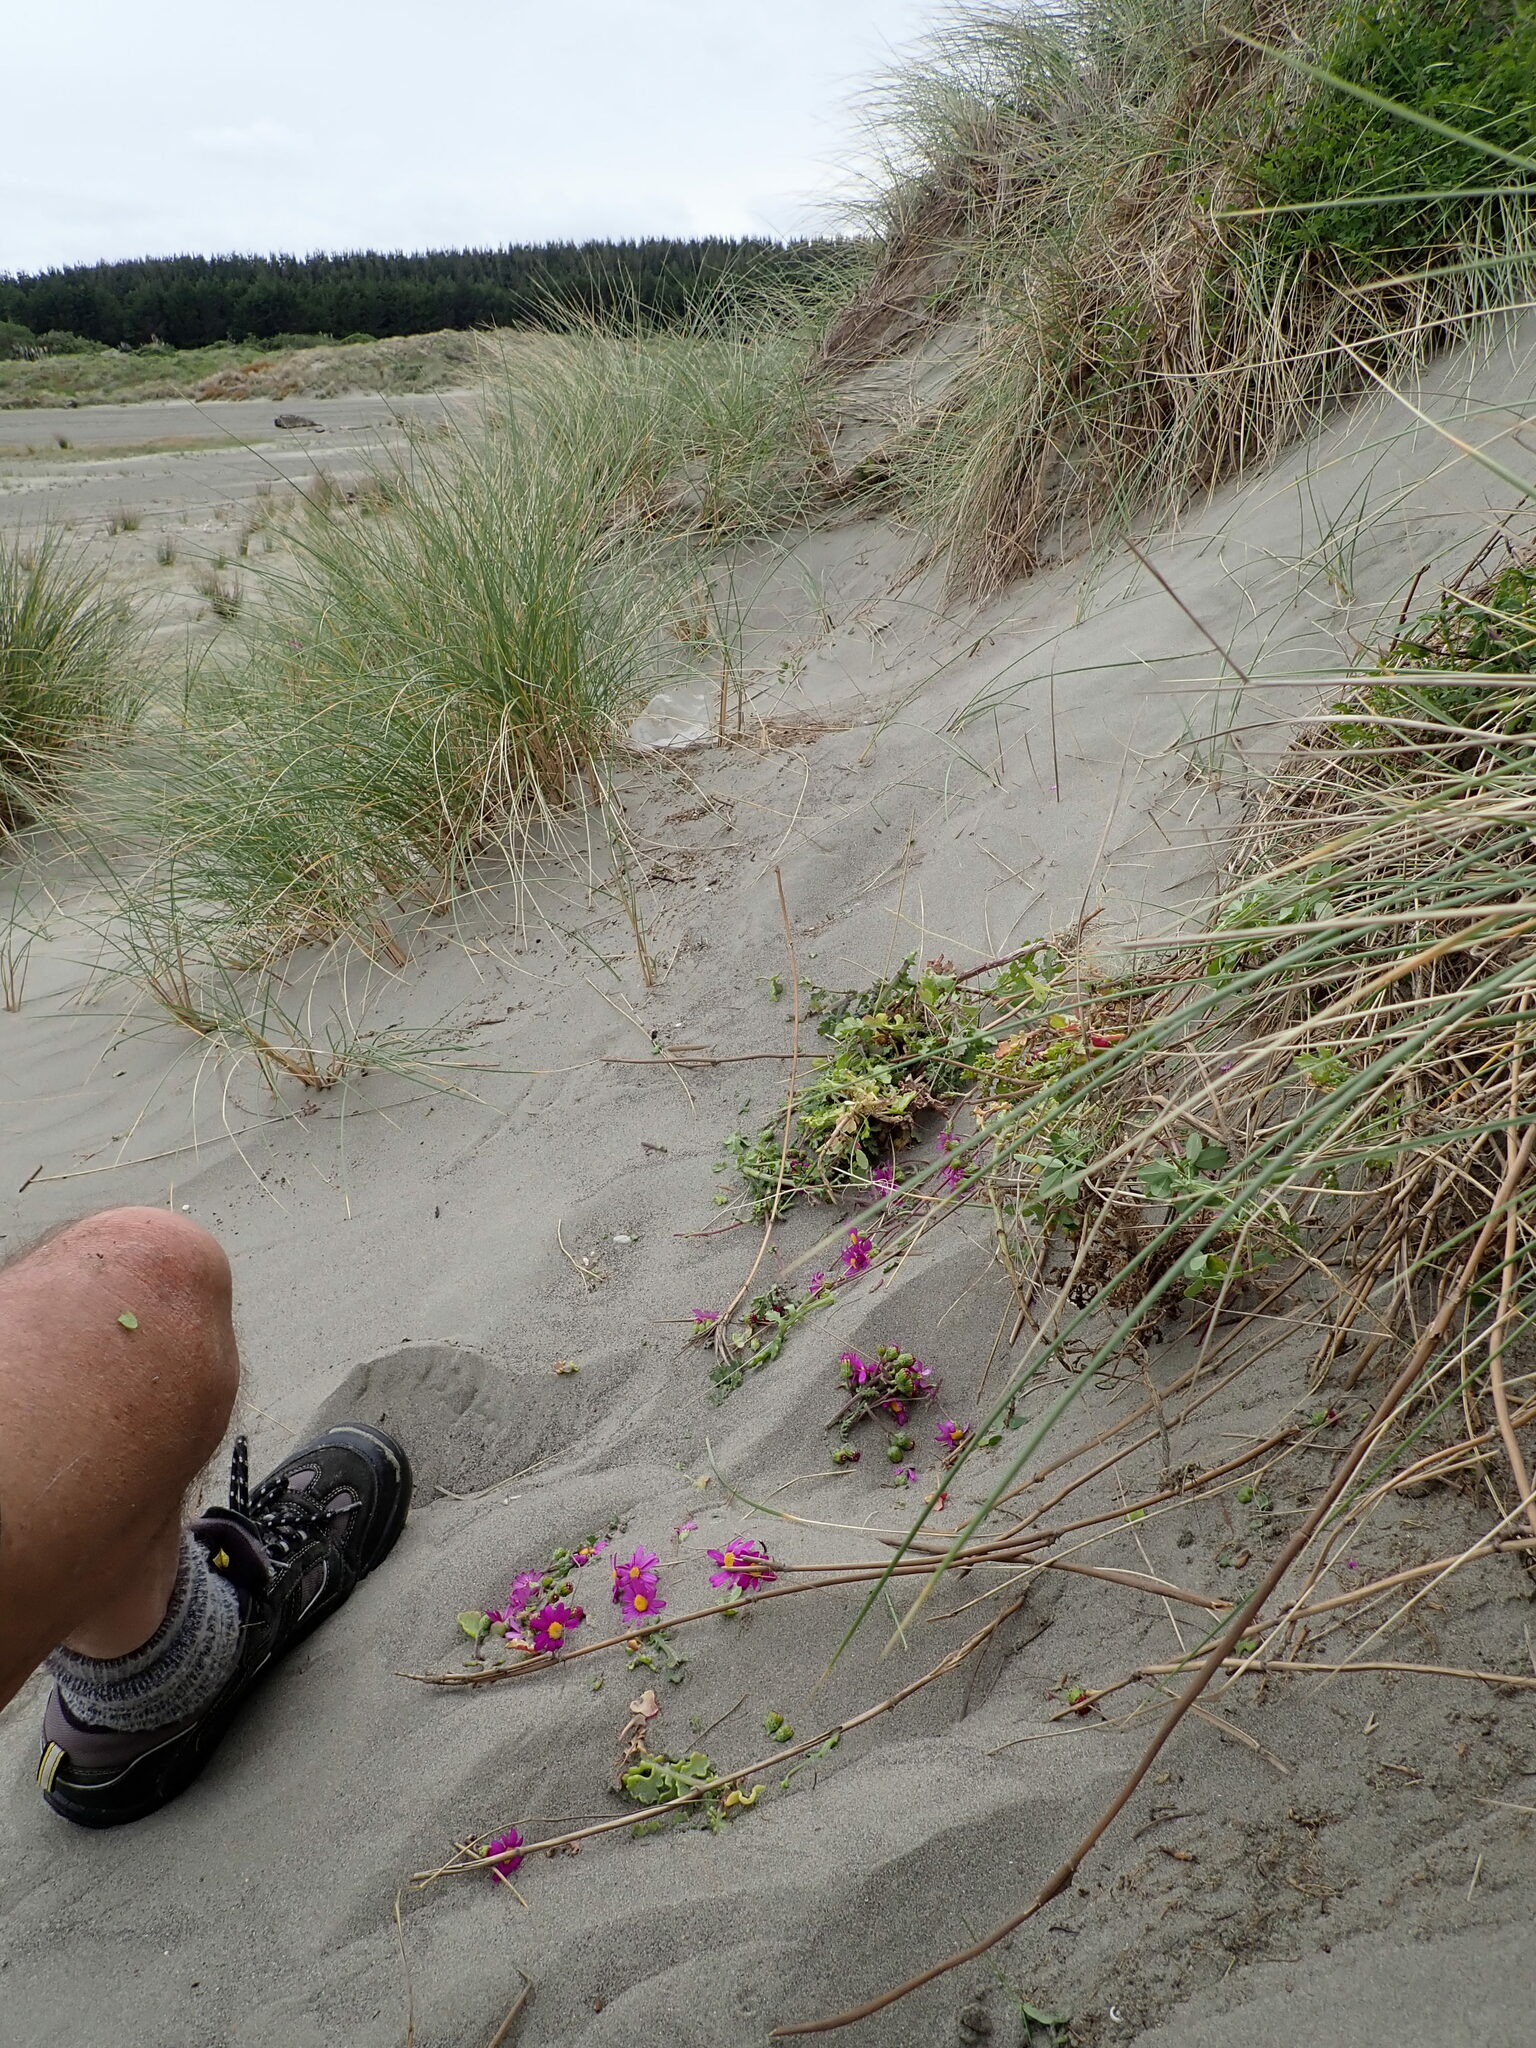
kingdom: Plantae
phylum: Tracheophyta
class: Magnoliopsida
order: Asterales
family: Asteraceae
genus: Senecio
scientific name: Senecio elegans
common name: Purple groundsel
